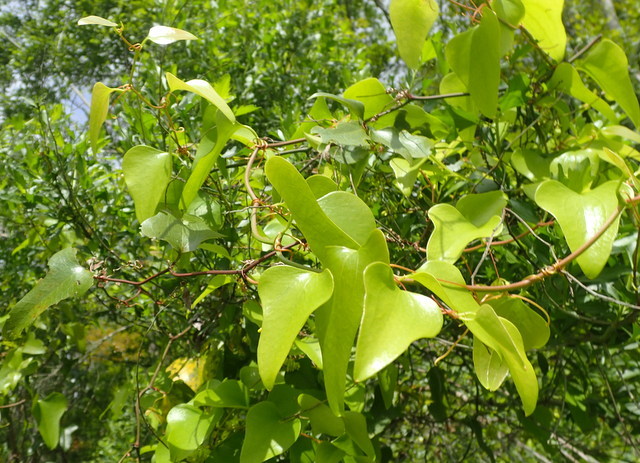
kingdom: Plantae
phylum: Tracheophyta
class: Liliopsida
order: Liliales
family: Smilacaceae
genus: Smilax
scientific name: Smilax auriculata
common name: Wild bamboo
